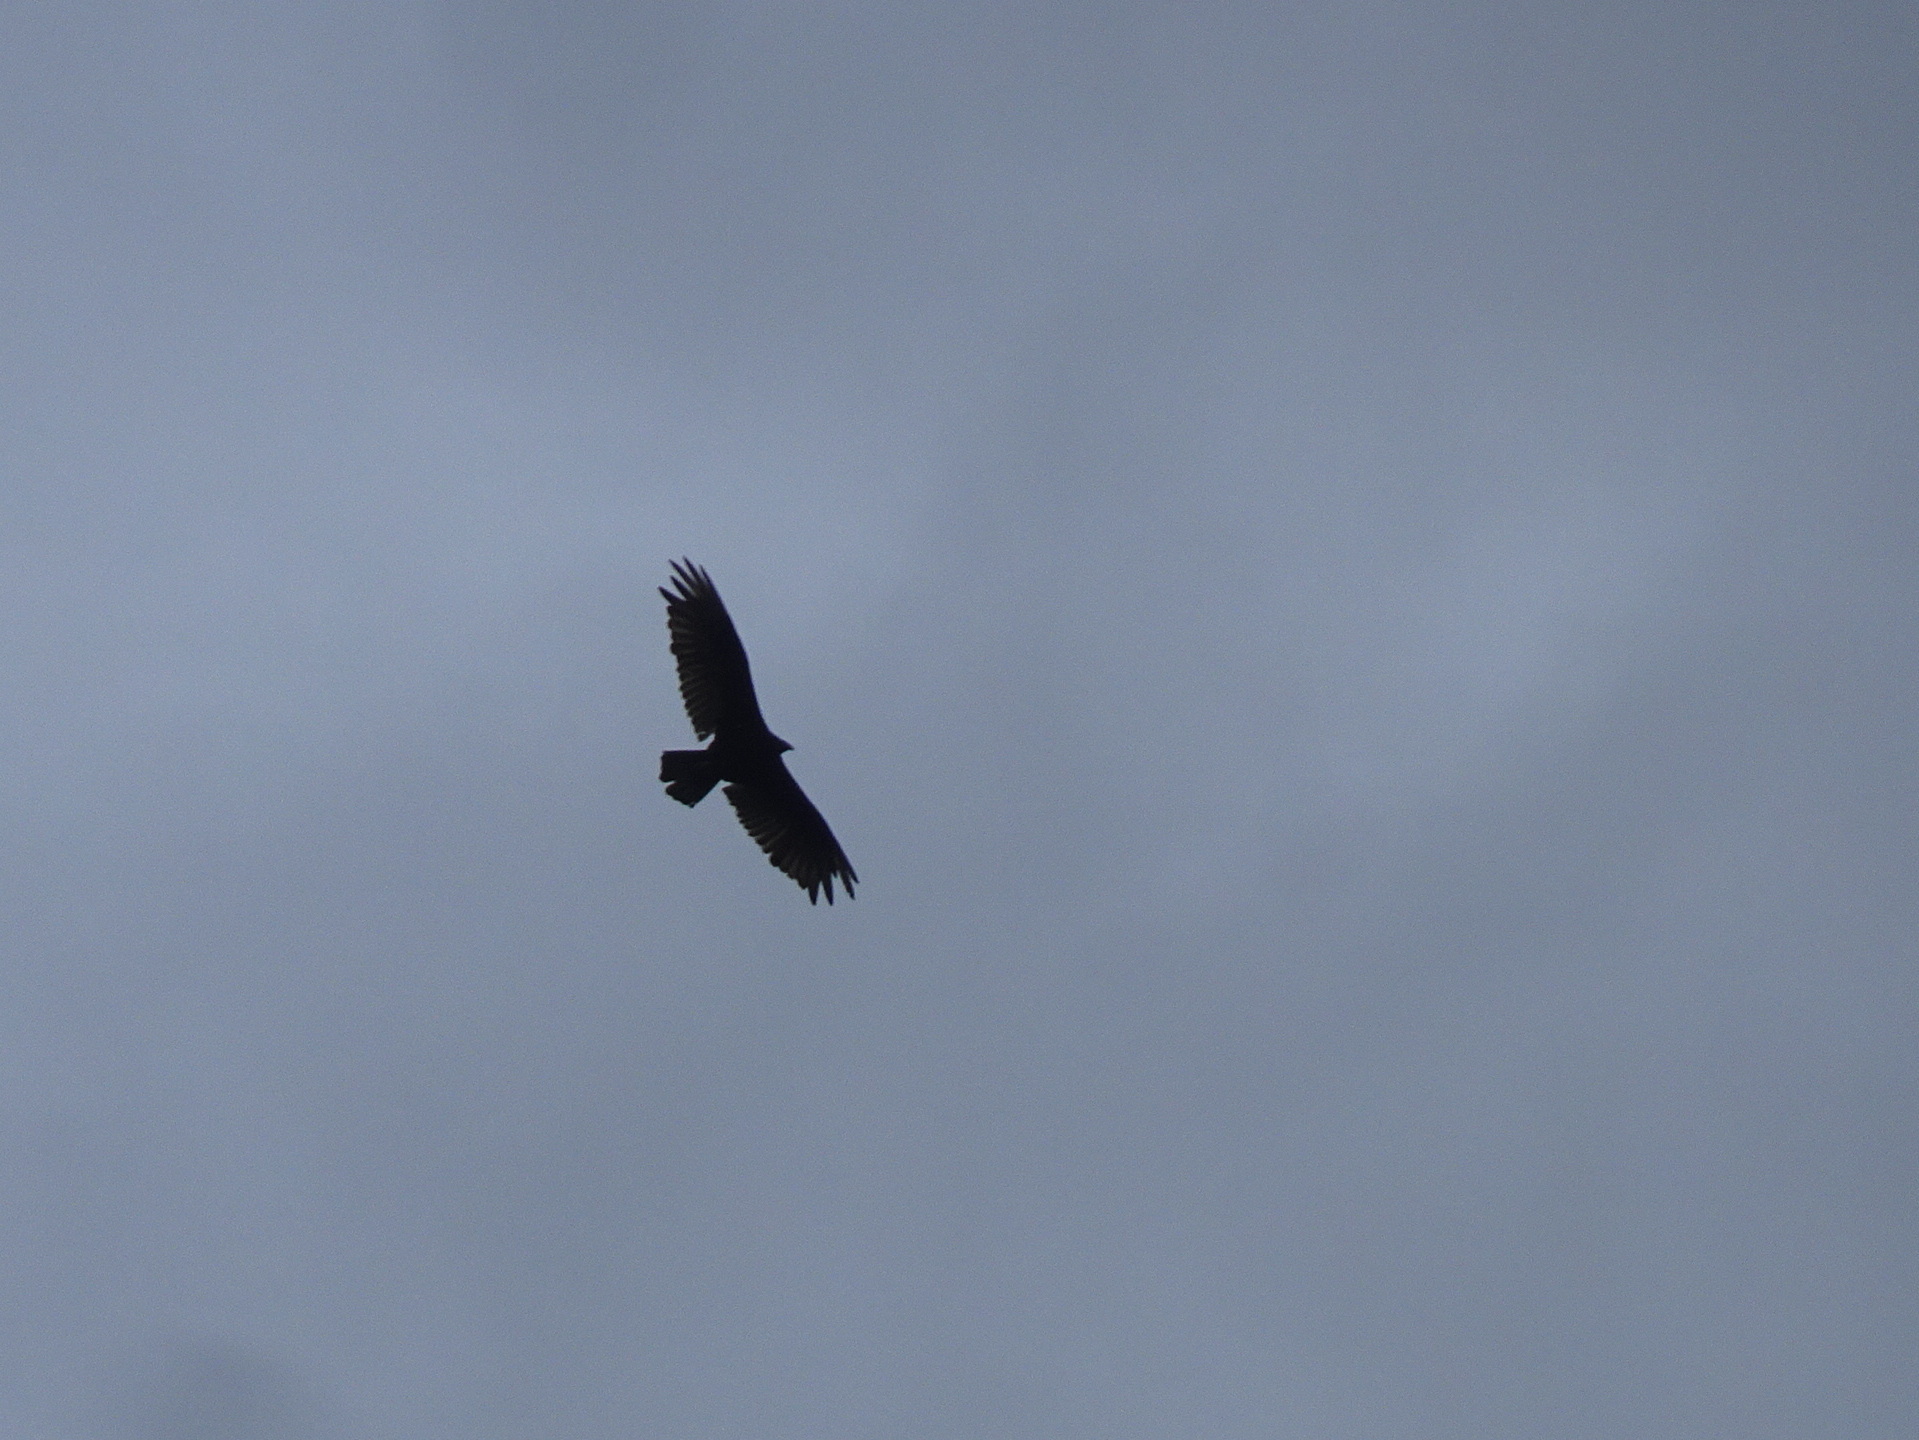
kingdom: Animalia
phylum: Chordata
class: Aves
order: Accipitriformes
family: Cathartidae
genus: Cathartes
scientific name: Cathartes aura
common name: Turkey vulture
